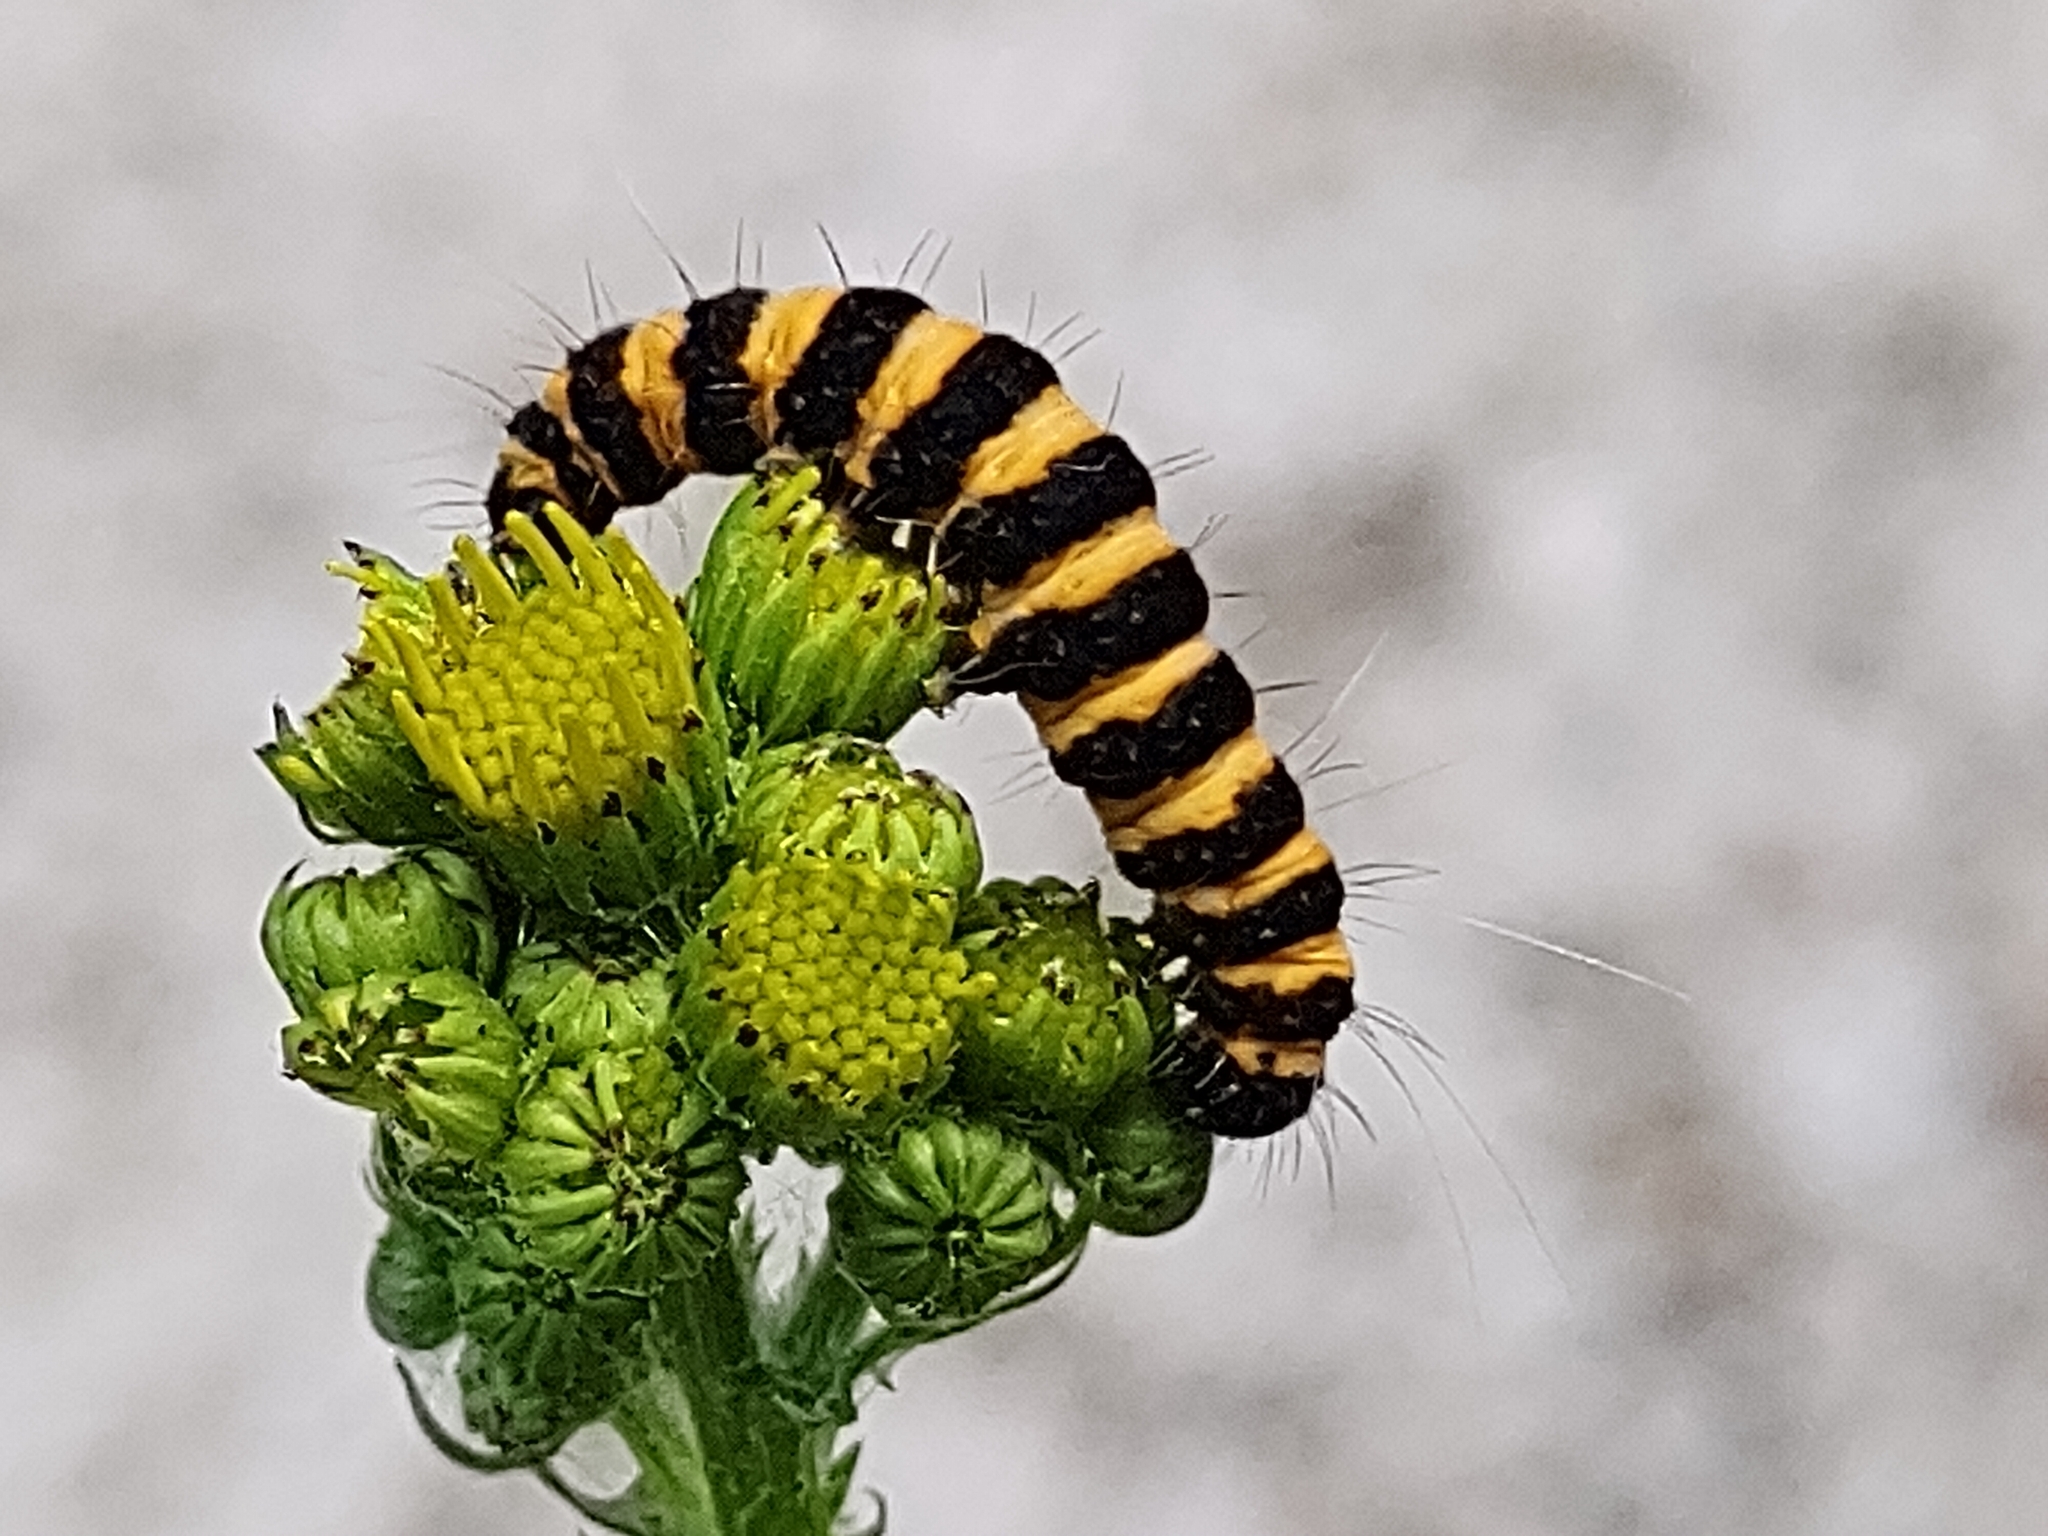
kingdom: Animalia
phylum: Arthropoda
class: Insecta
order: Lepidoptera
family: Erebidae
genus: Tyria
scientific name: Tyria jacobaeae
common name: Cinnabar
